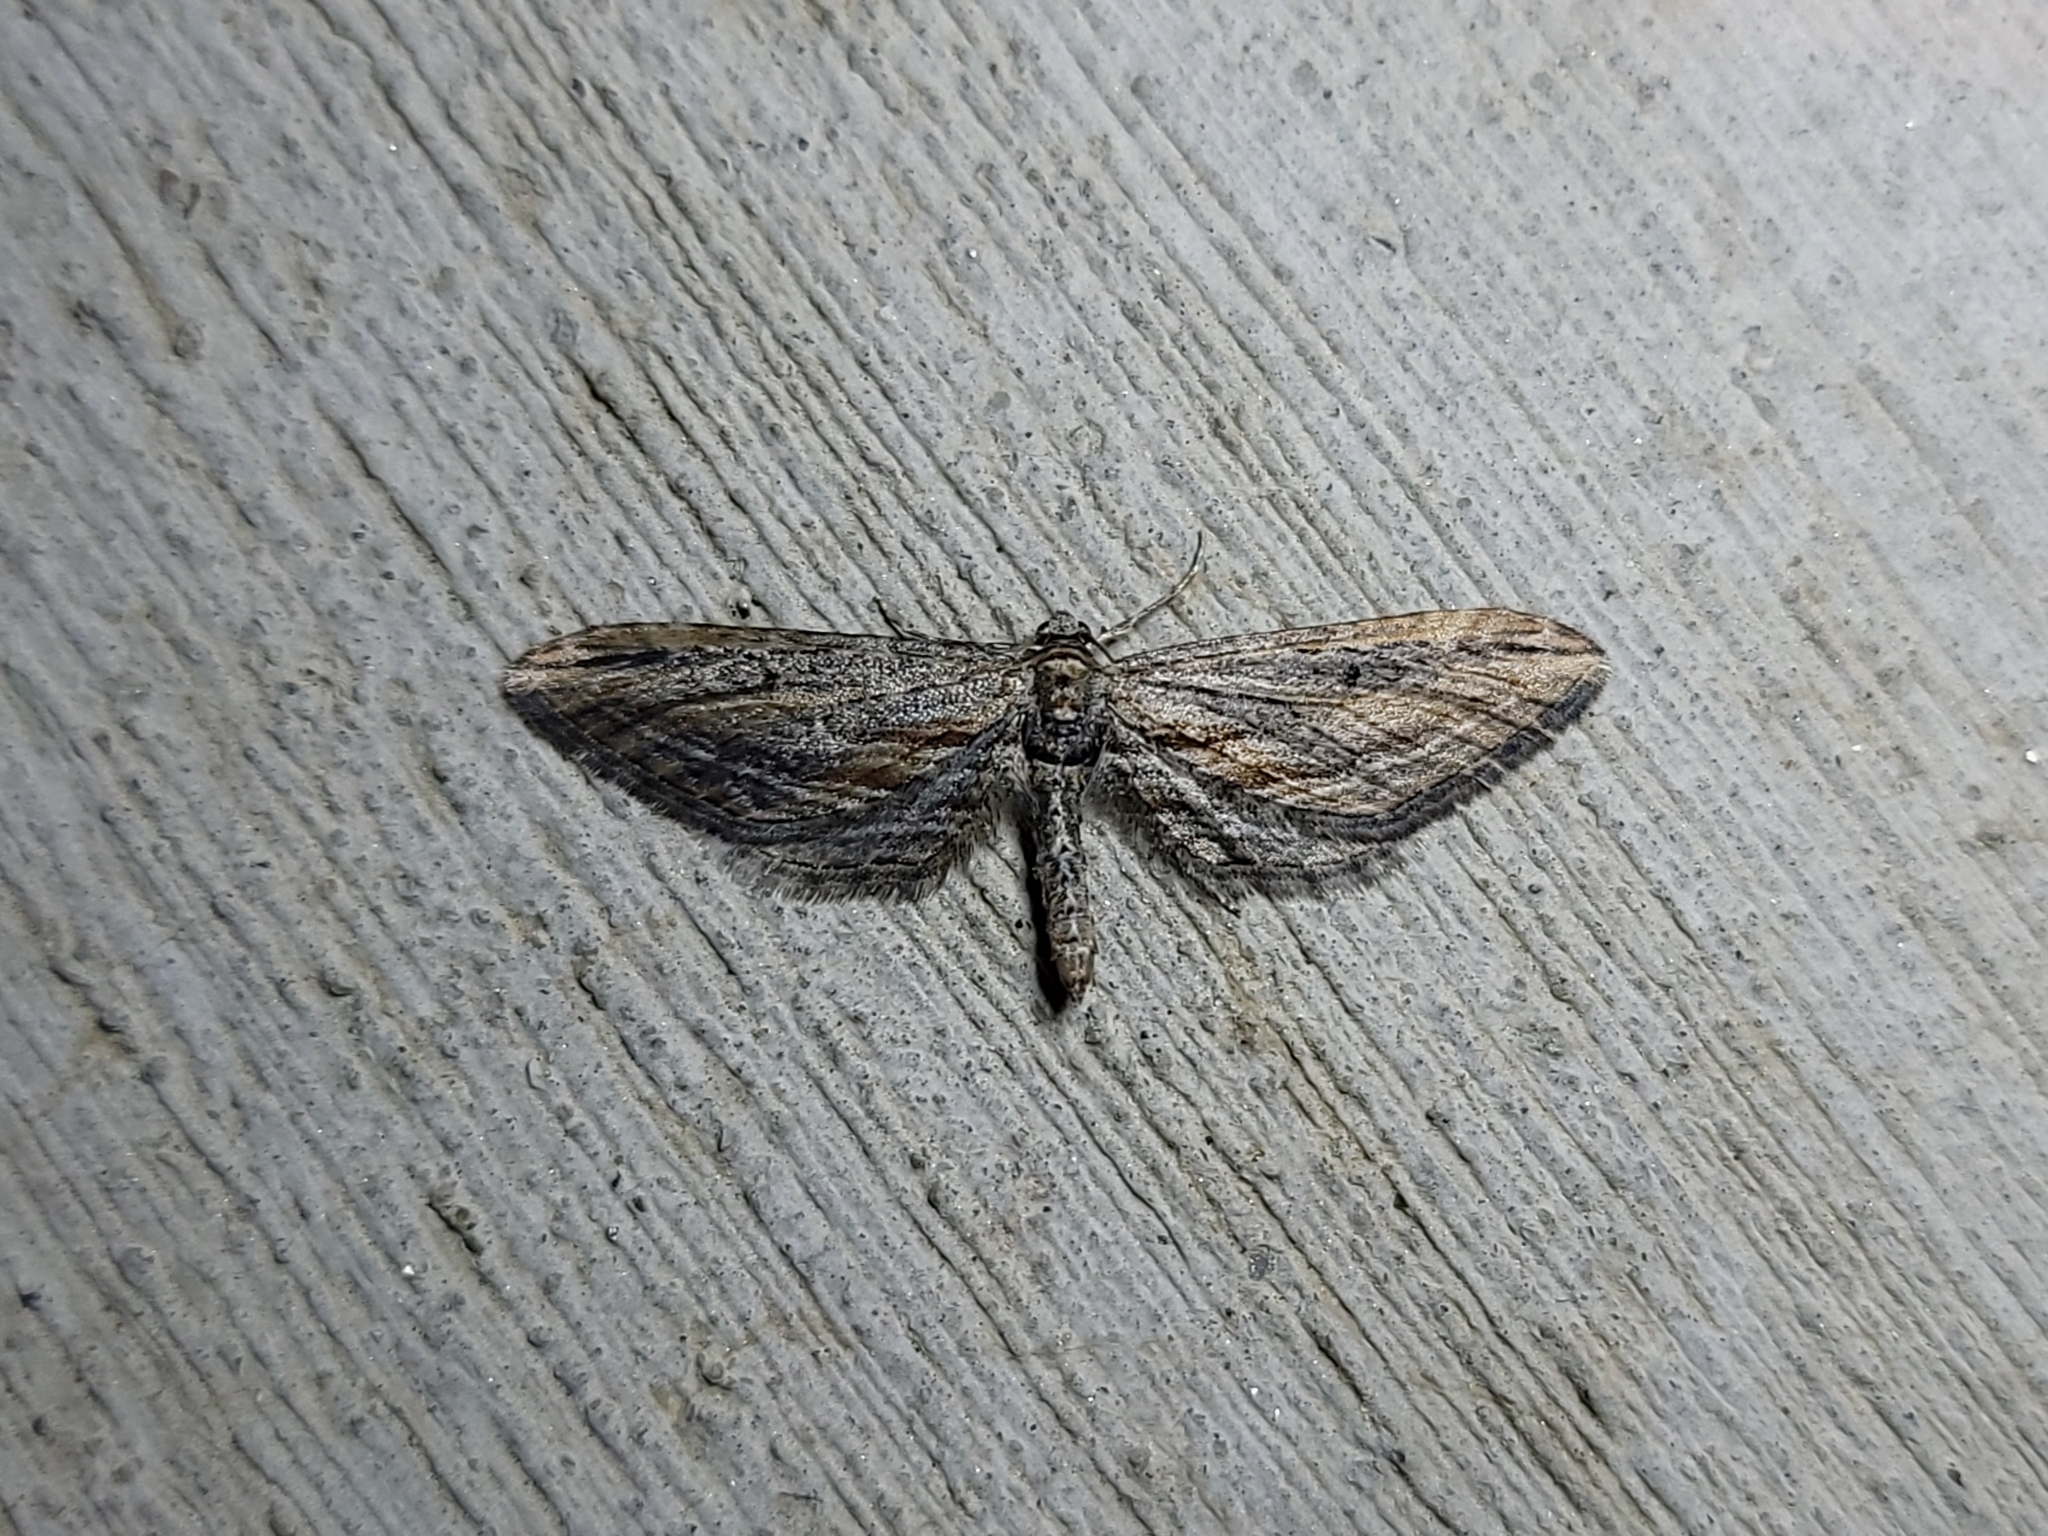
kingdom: Animalia
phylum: Arthropoda
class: Insecta
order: Lepidoptera
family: Geometridae
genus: Eupithecia
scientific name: Eupithecia acutipennis
